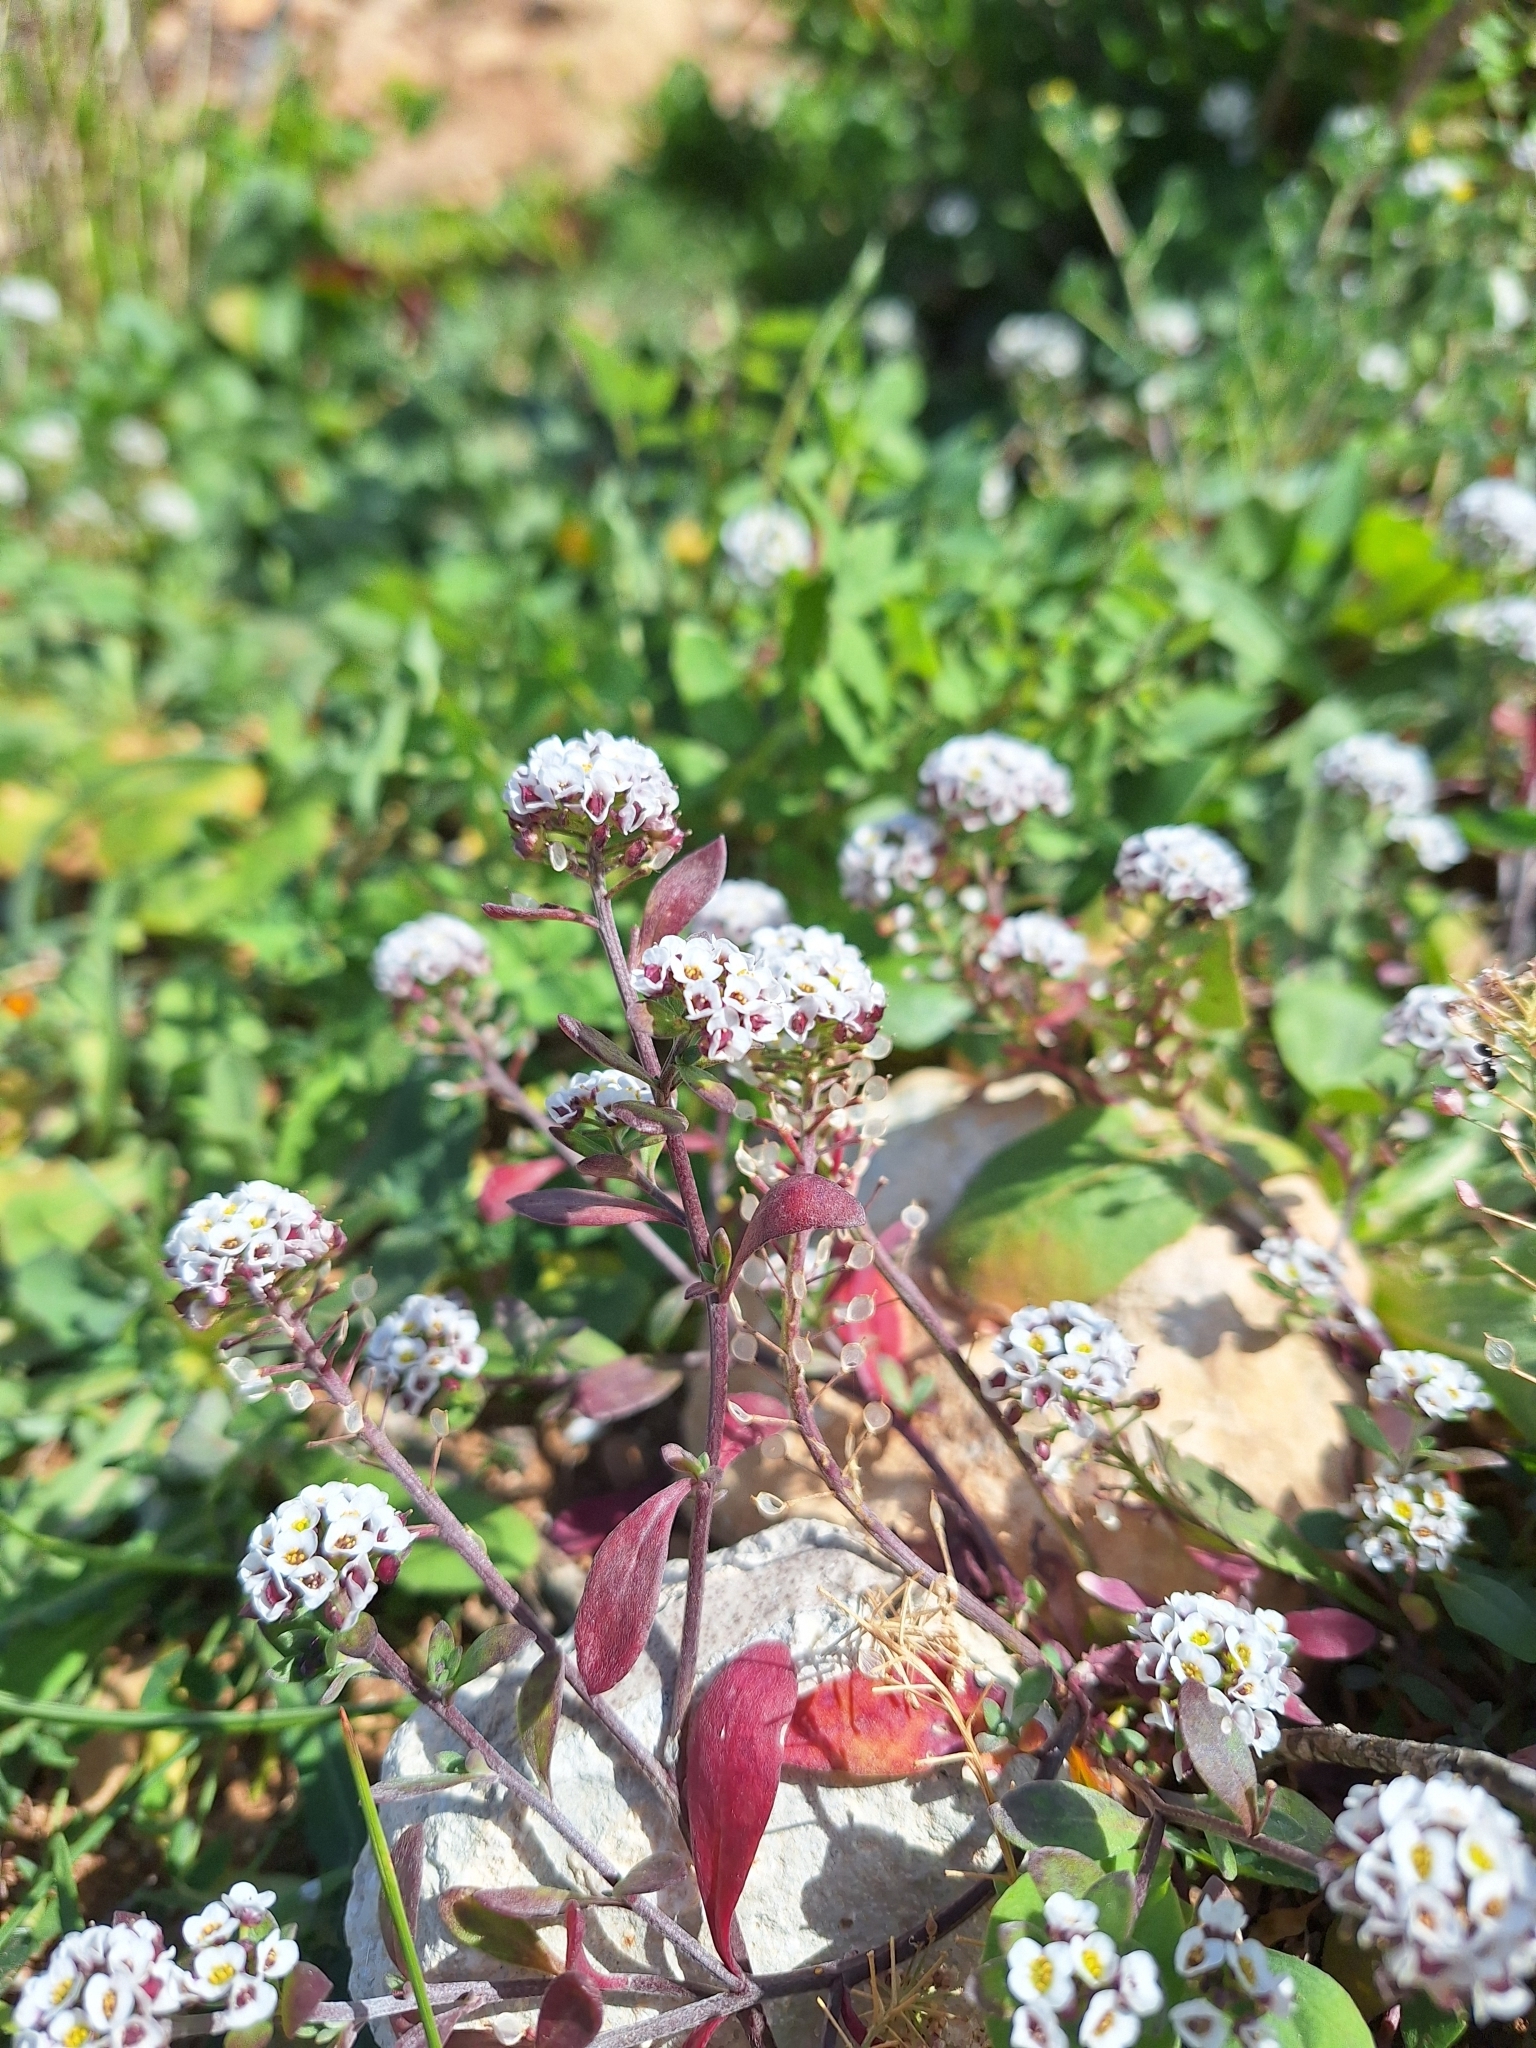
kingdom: Plantae
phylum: Tracheophyta
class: Magnoliopsida
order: Brassicales
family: Brassicaceae
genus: Lobularia
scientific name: Lobularia maritima
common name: Sweet alison
